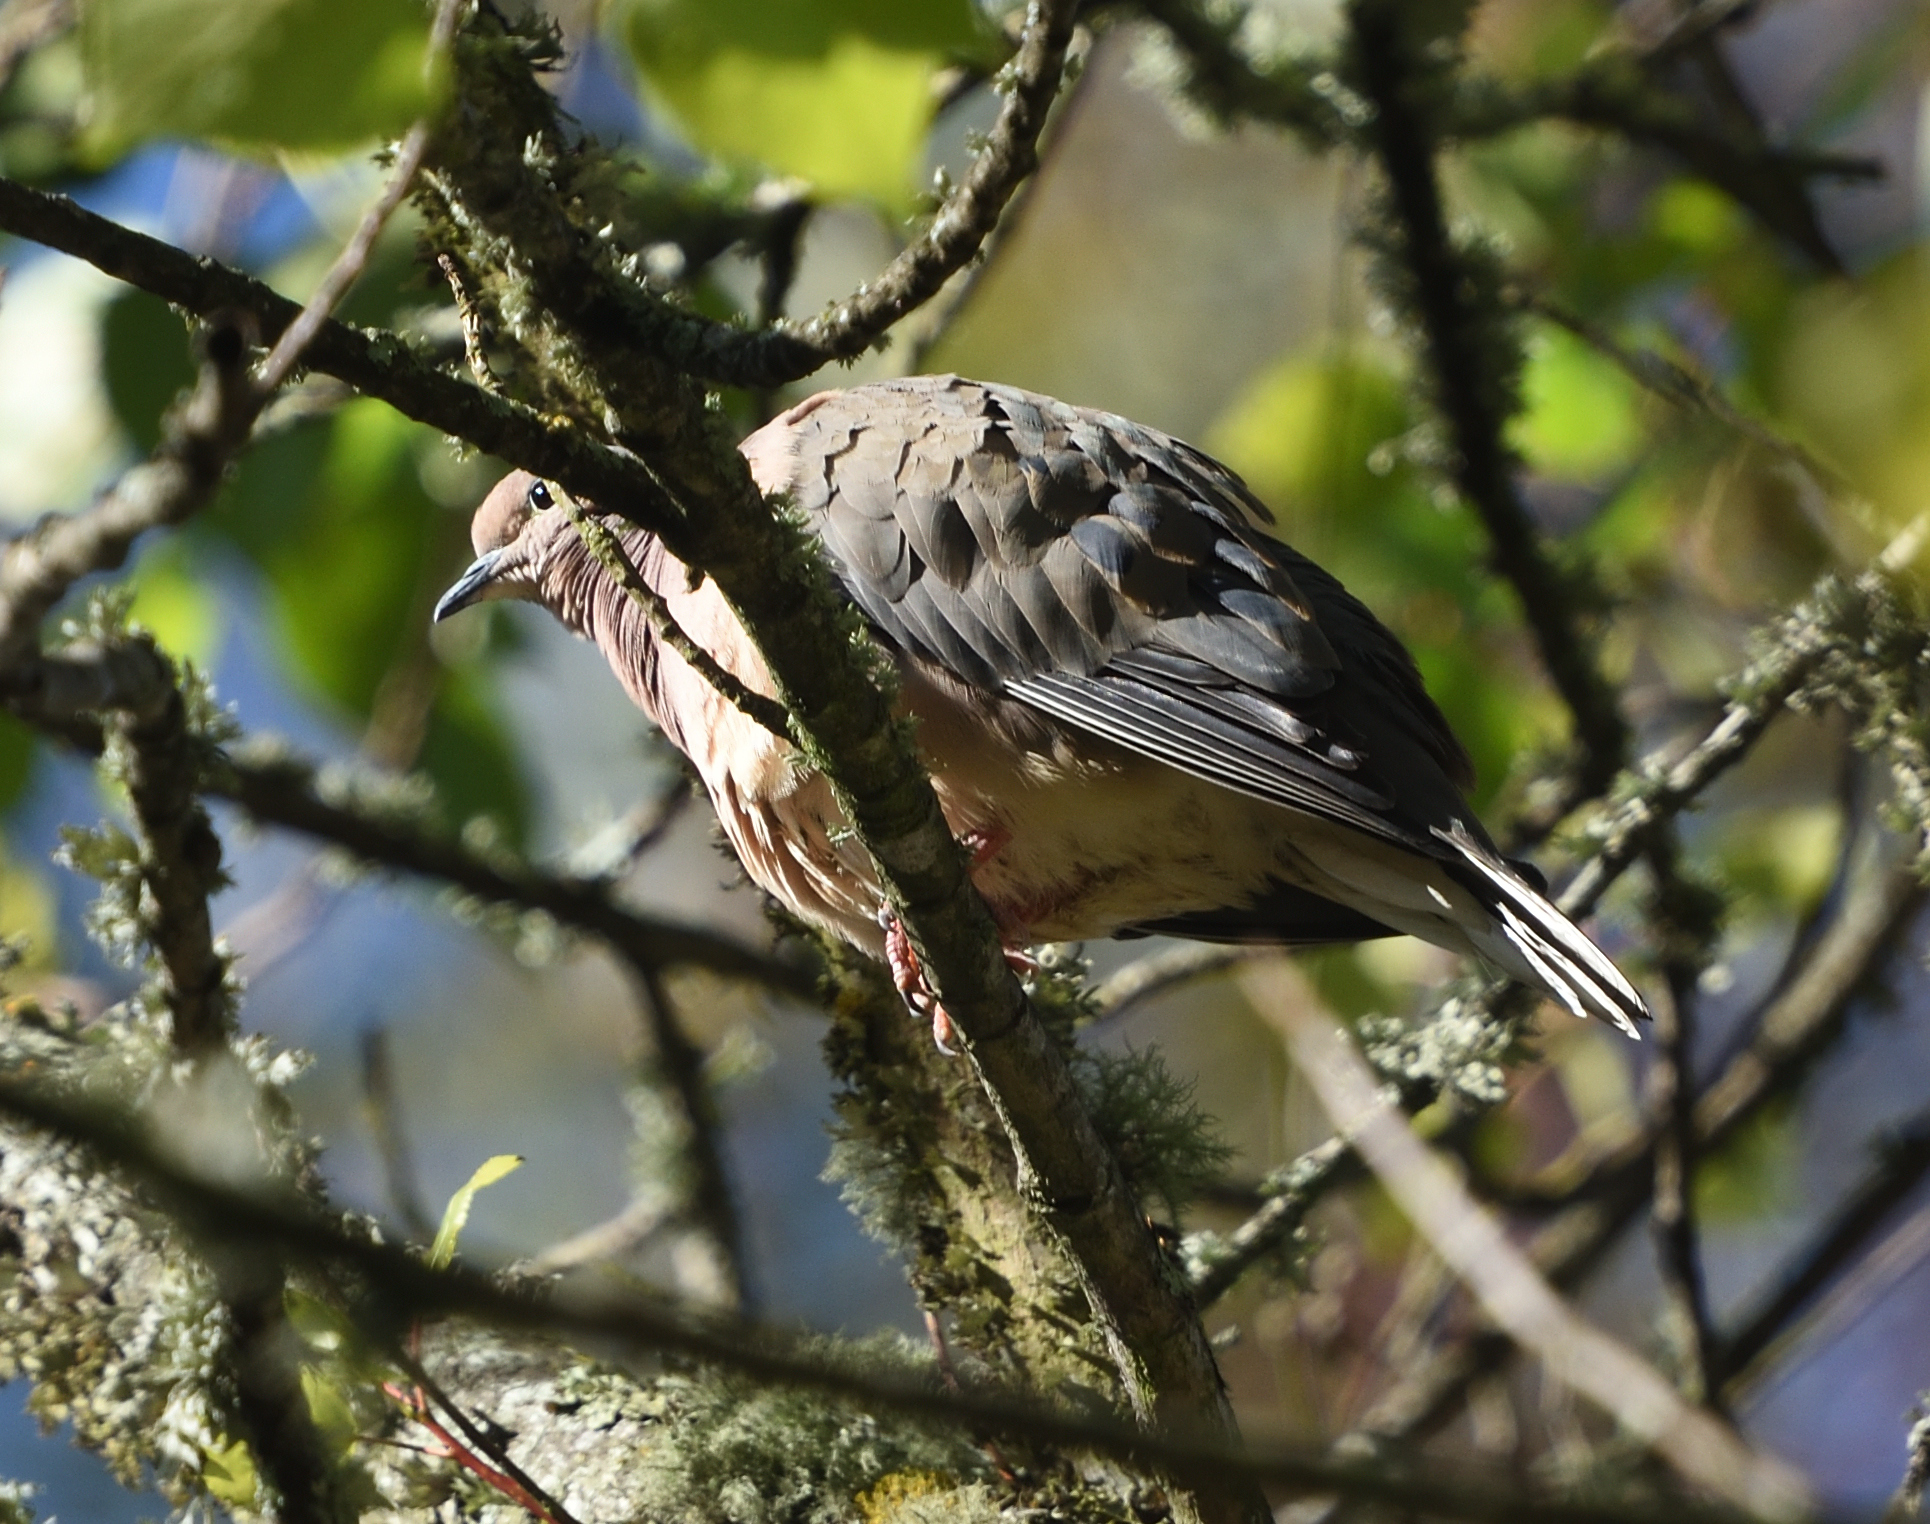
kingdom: Animalia
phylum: Chordata
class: Aves
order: Columbiformes
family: Columbidae
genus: Zenaida
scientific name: Zenaida auriculata
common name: Eared dove
